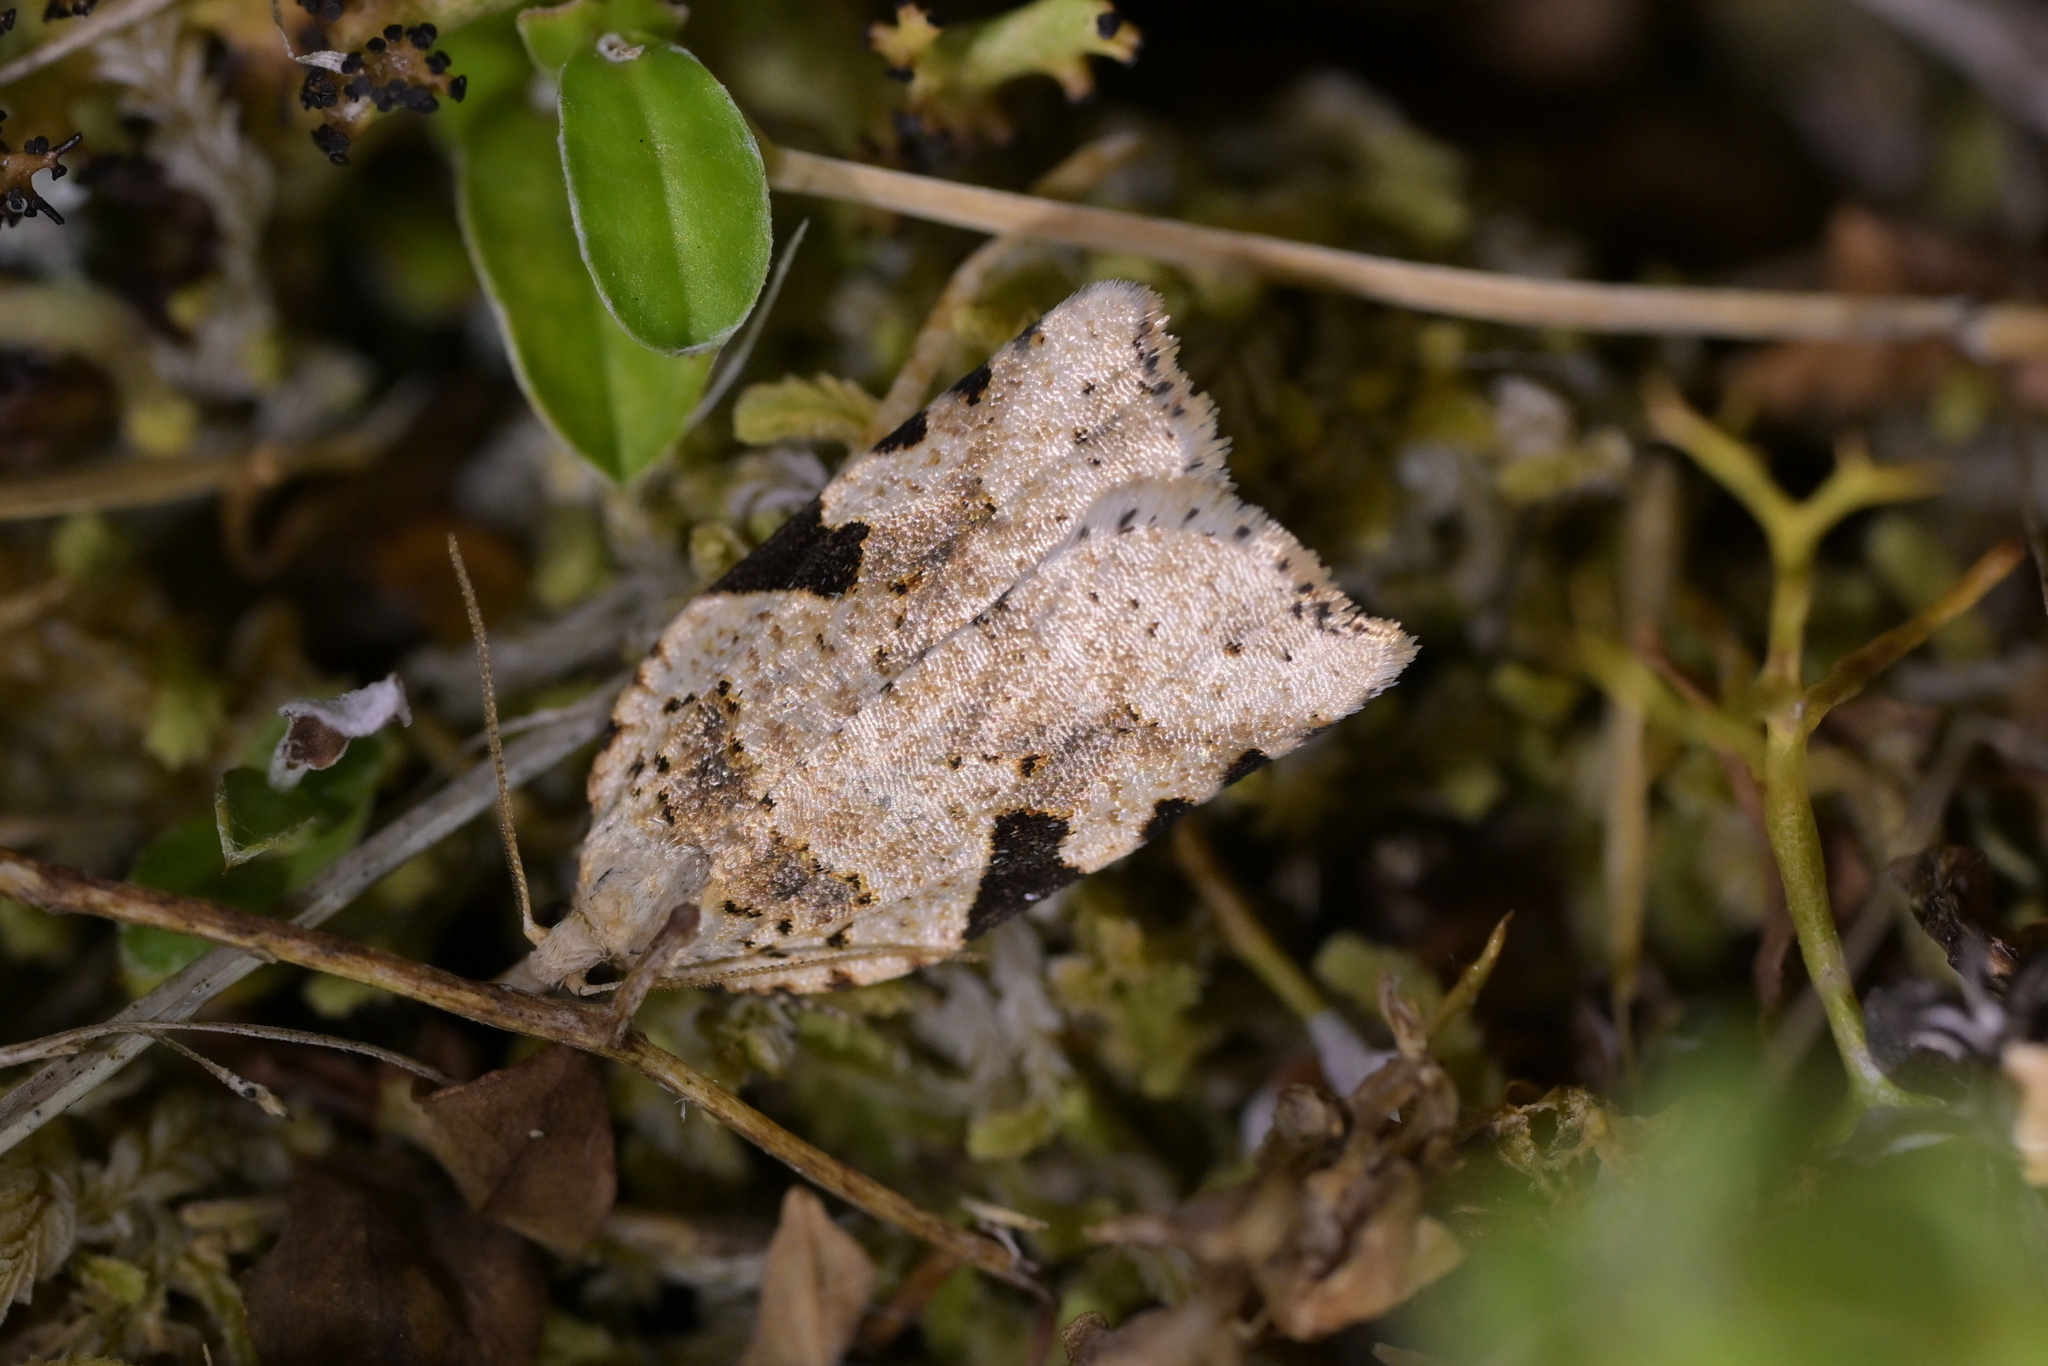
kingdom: Animalia
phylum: Arthropoda
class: Insecta
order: Lepidoptera
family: Tortricidae
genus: Leucotenes
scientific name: Leucotenes coprosmae
